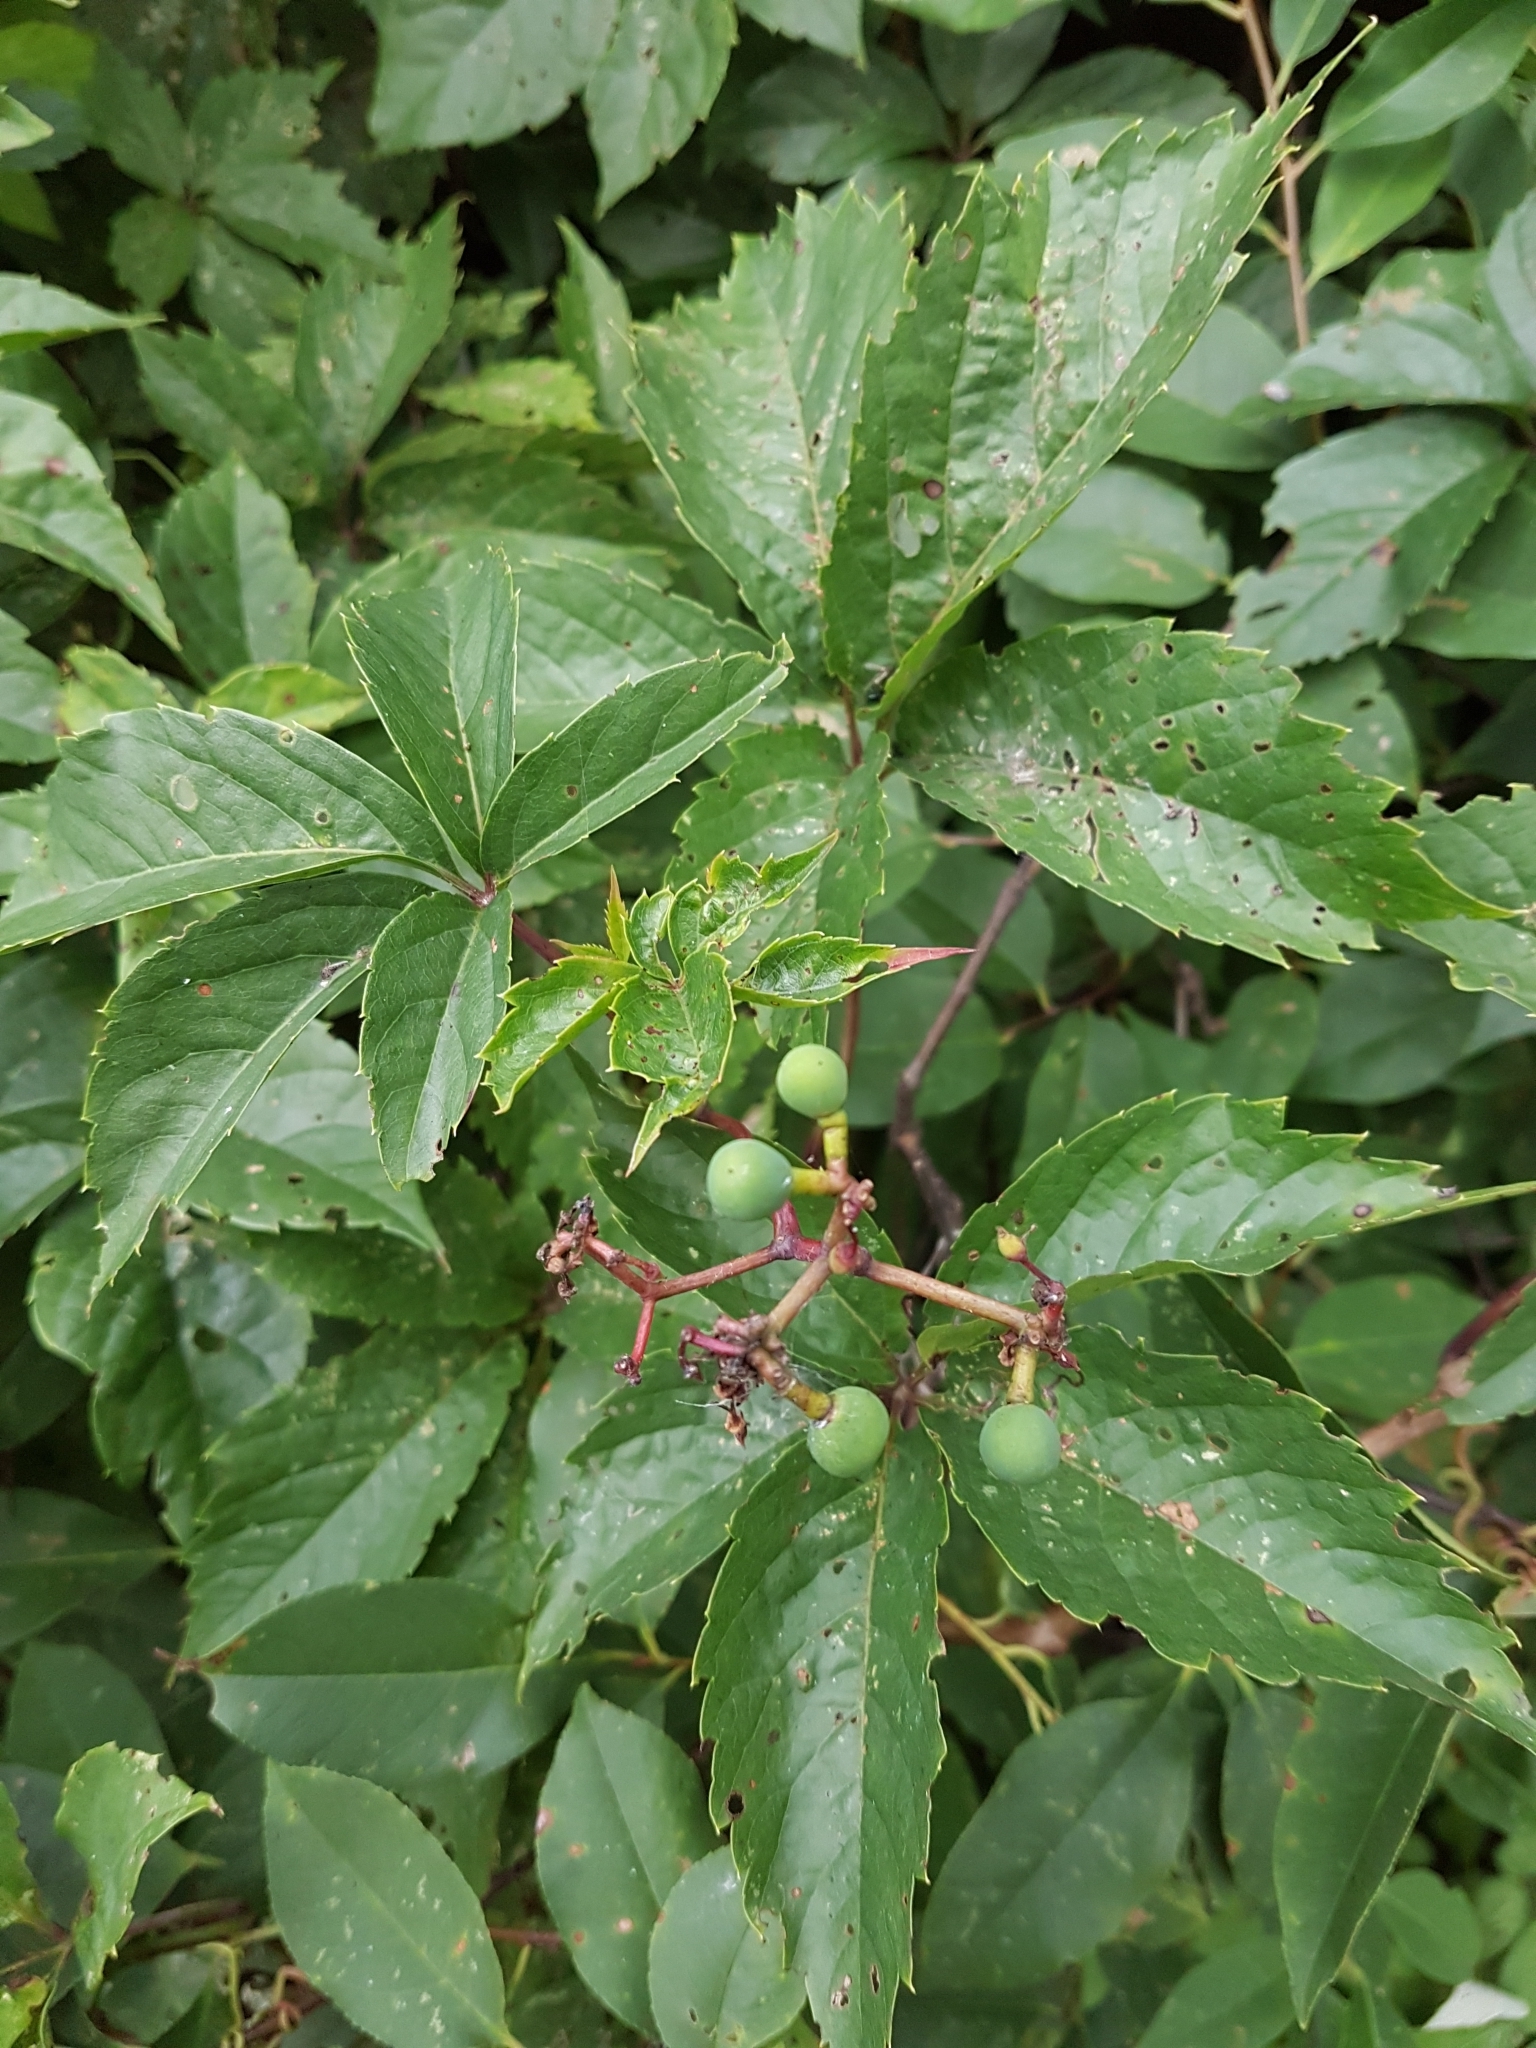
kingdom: Plantae
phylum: Tracheophyta
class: Magnoliopsida
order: Vitales
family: Vitaceae
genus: Parthenocissus
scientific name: Parthenocissus quinquefolia
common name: Virginia-creeper
